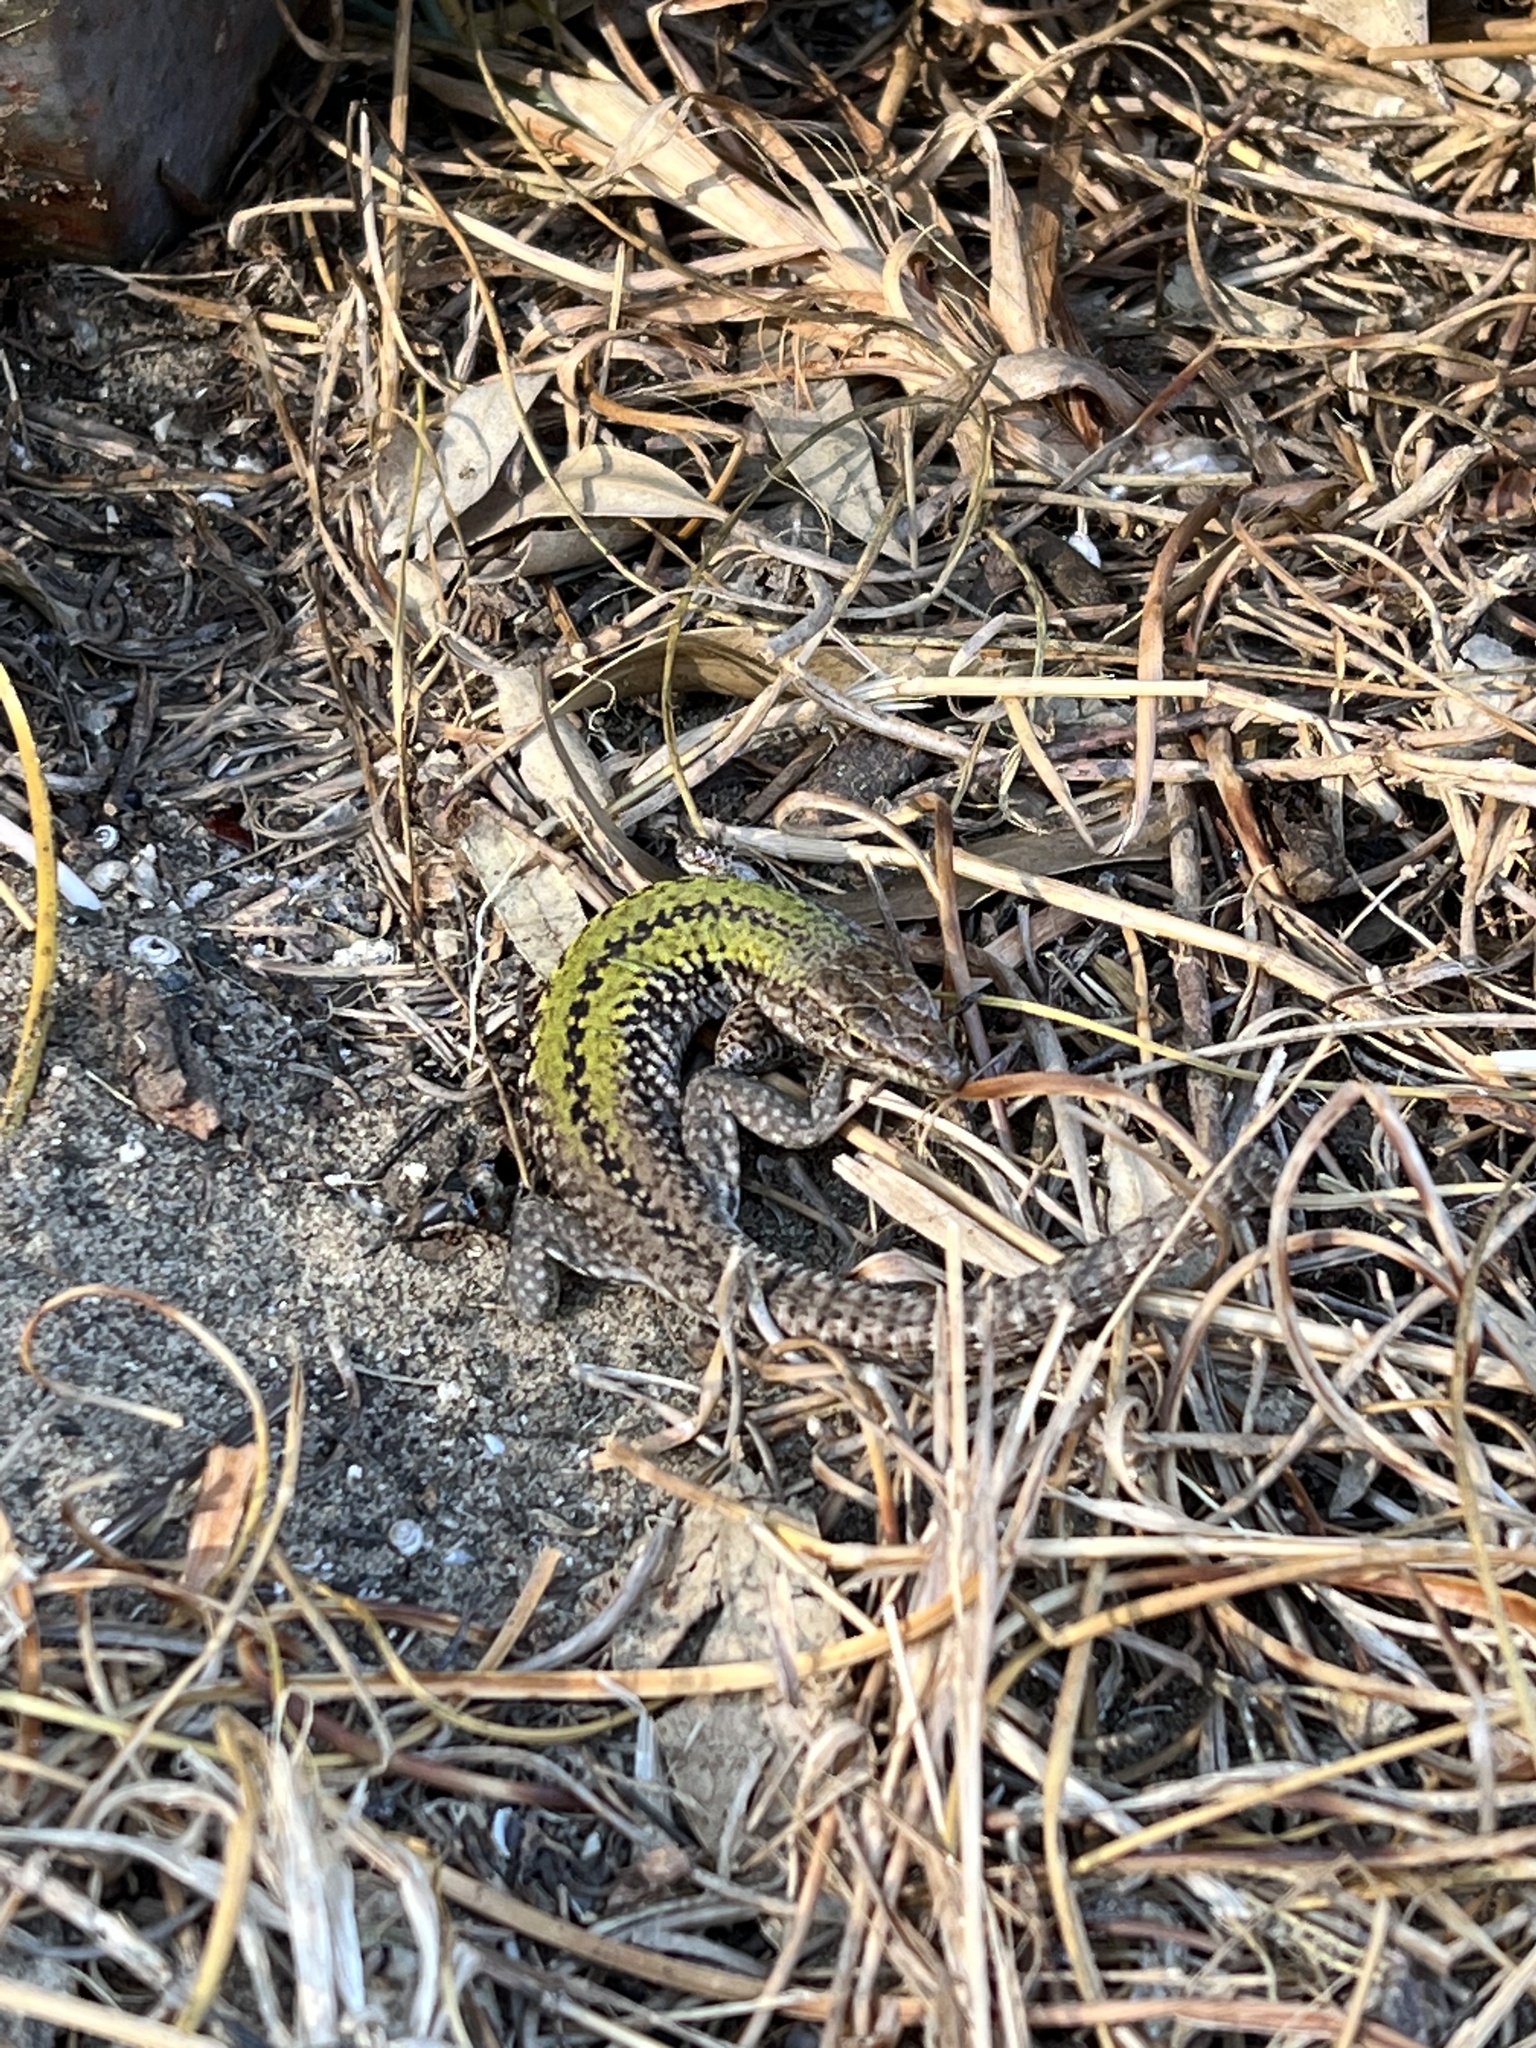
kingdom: Animalia
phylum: Chordata
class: Squamata
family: Lacertidae
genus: Podarcis
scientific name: Podarcis siculus
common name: Italian wall lizard
